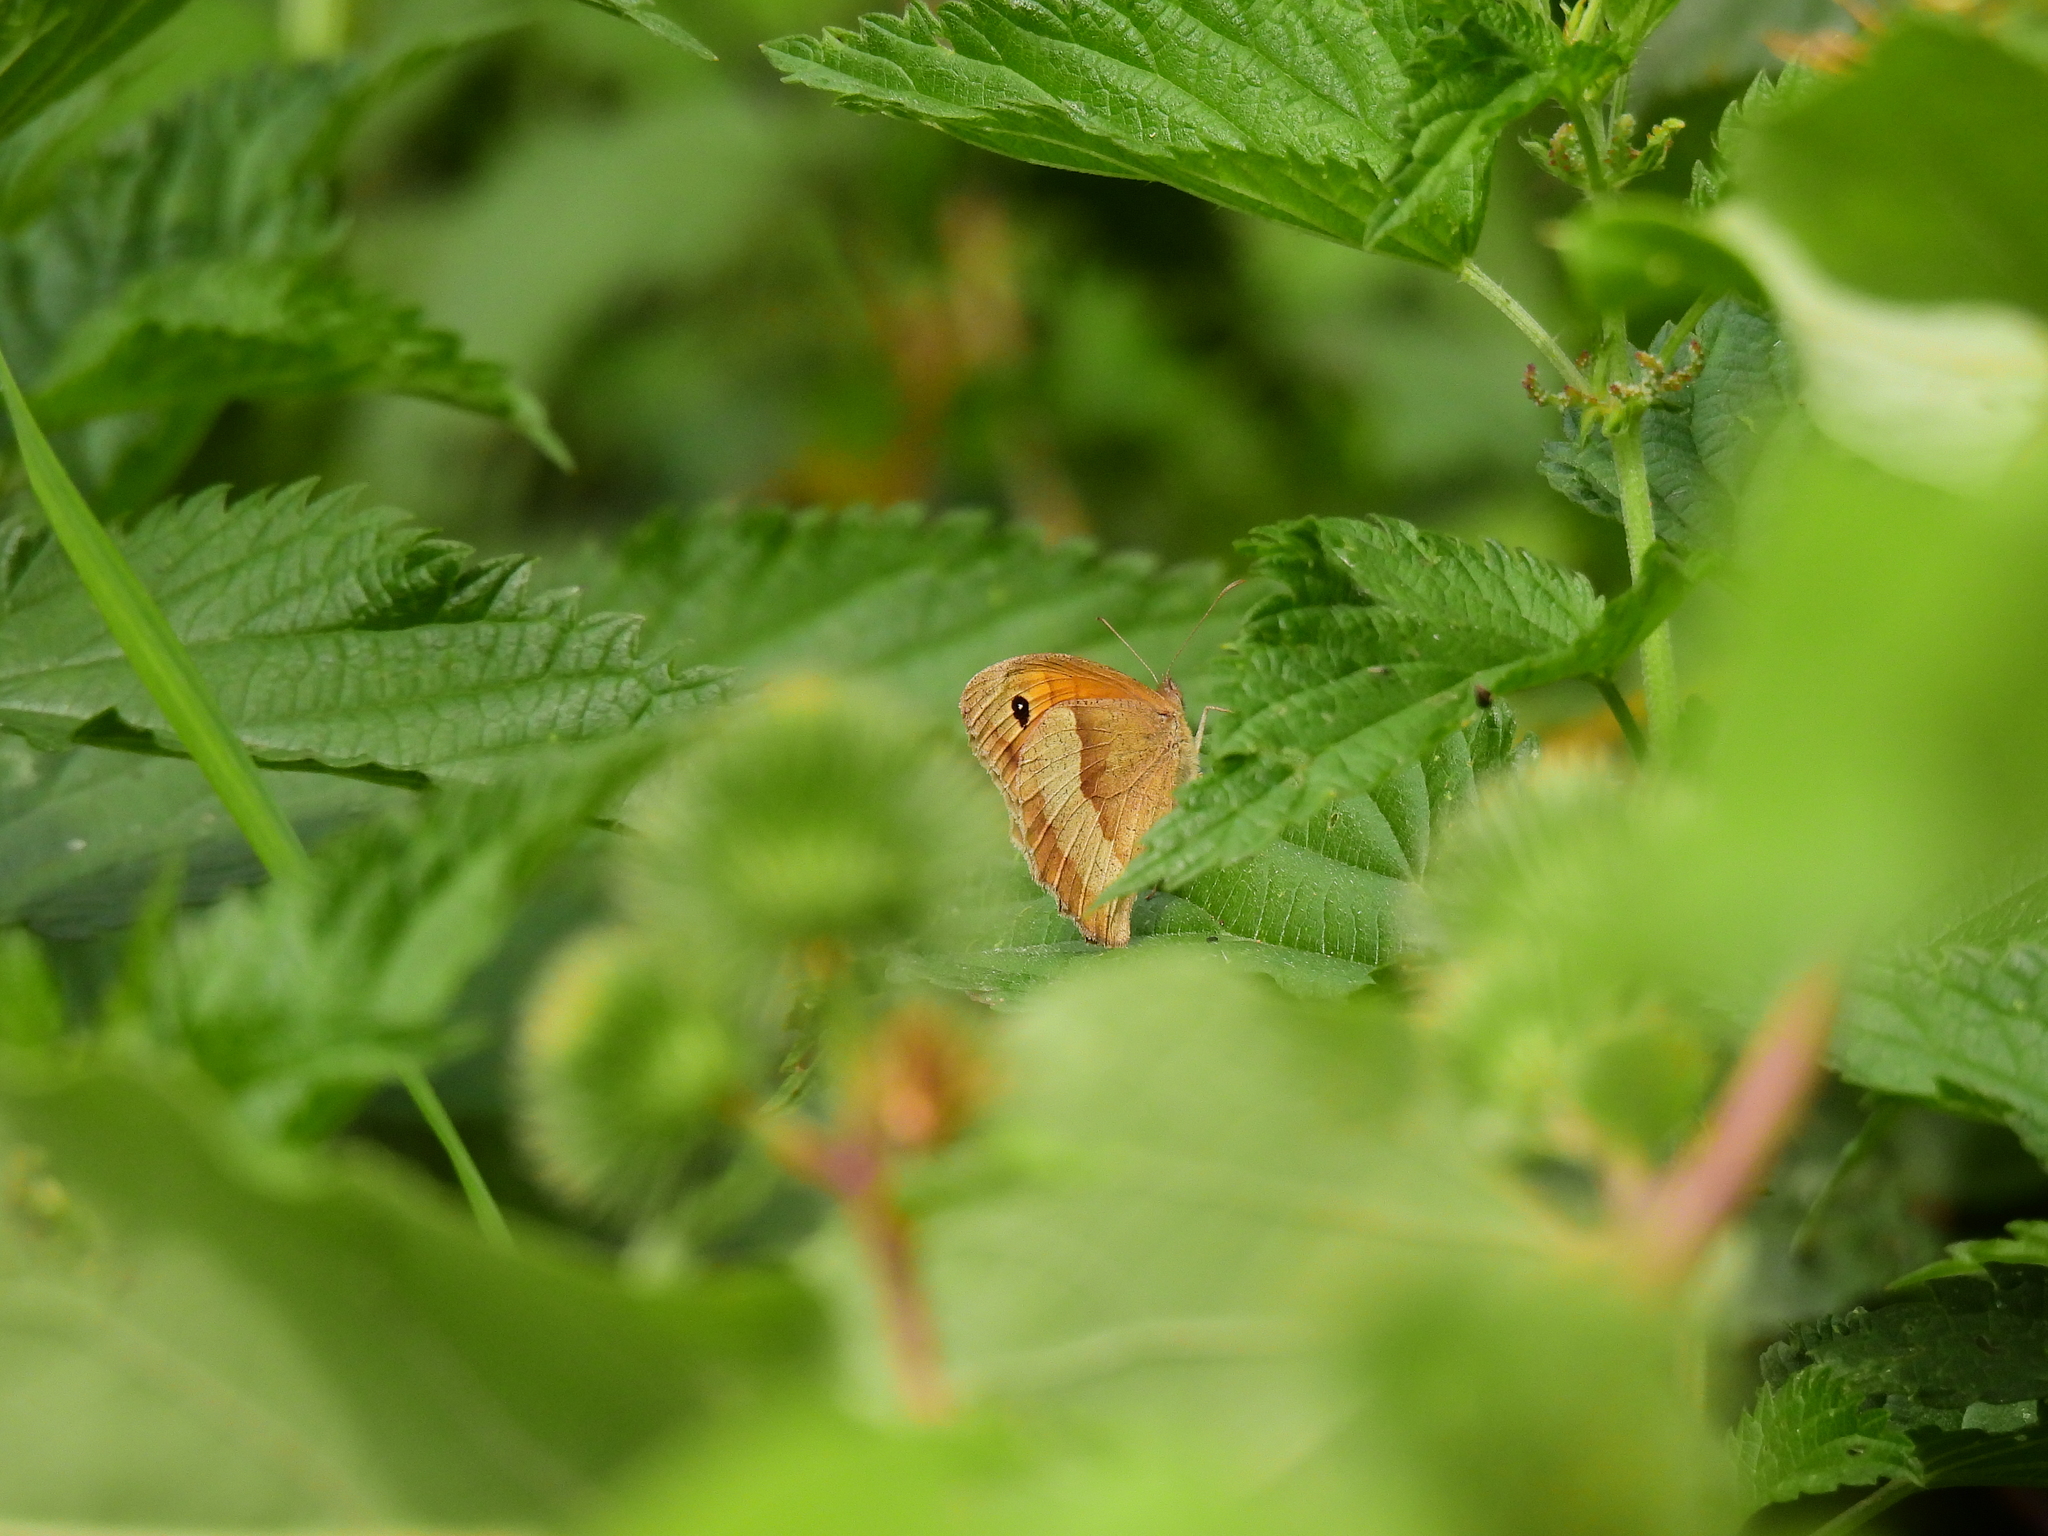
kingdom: Animalia
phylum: Arthropoda
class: Insecta
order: Lepidoptera
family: Nymphalidae
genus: Maniola
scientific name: Maniola jurtina
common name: Meadow brown
